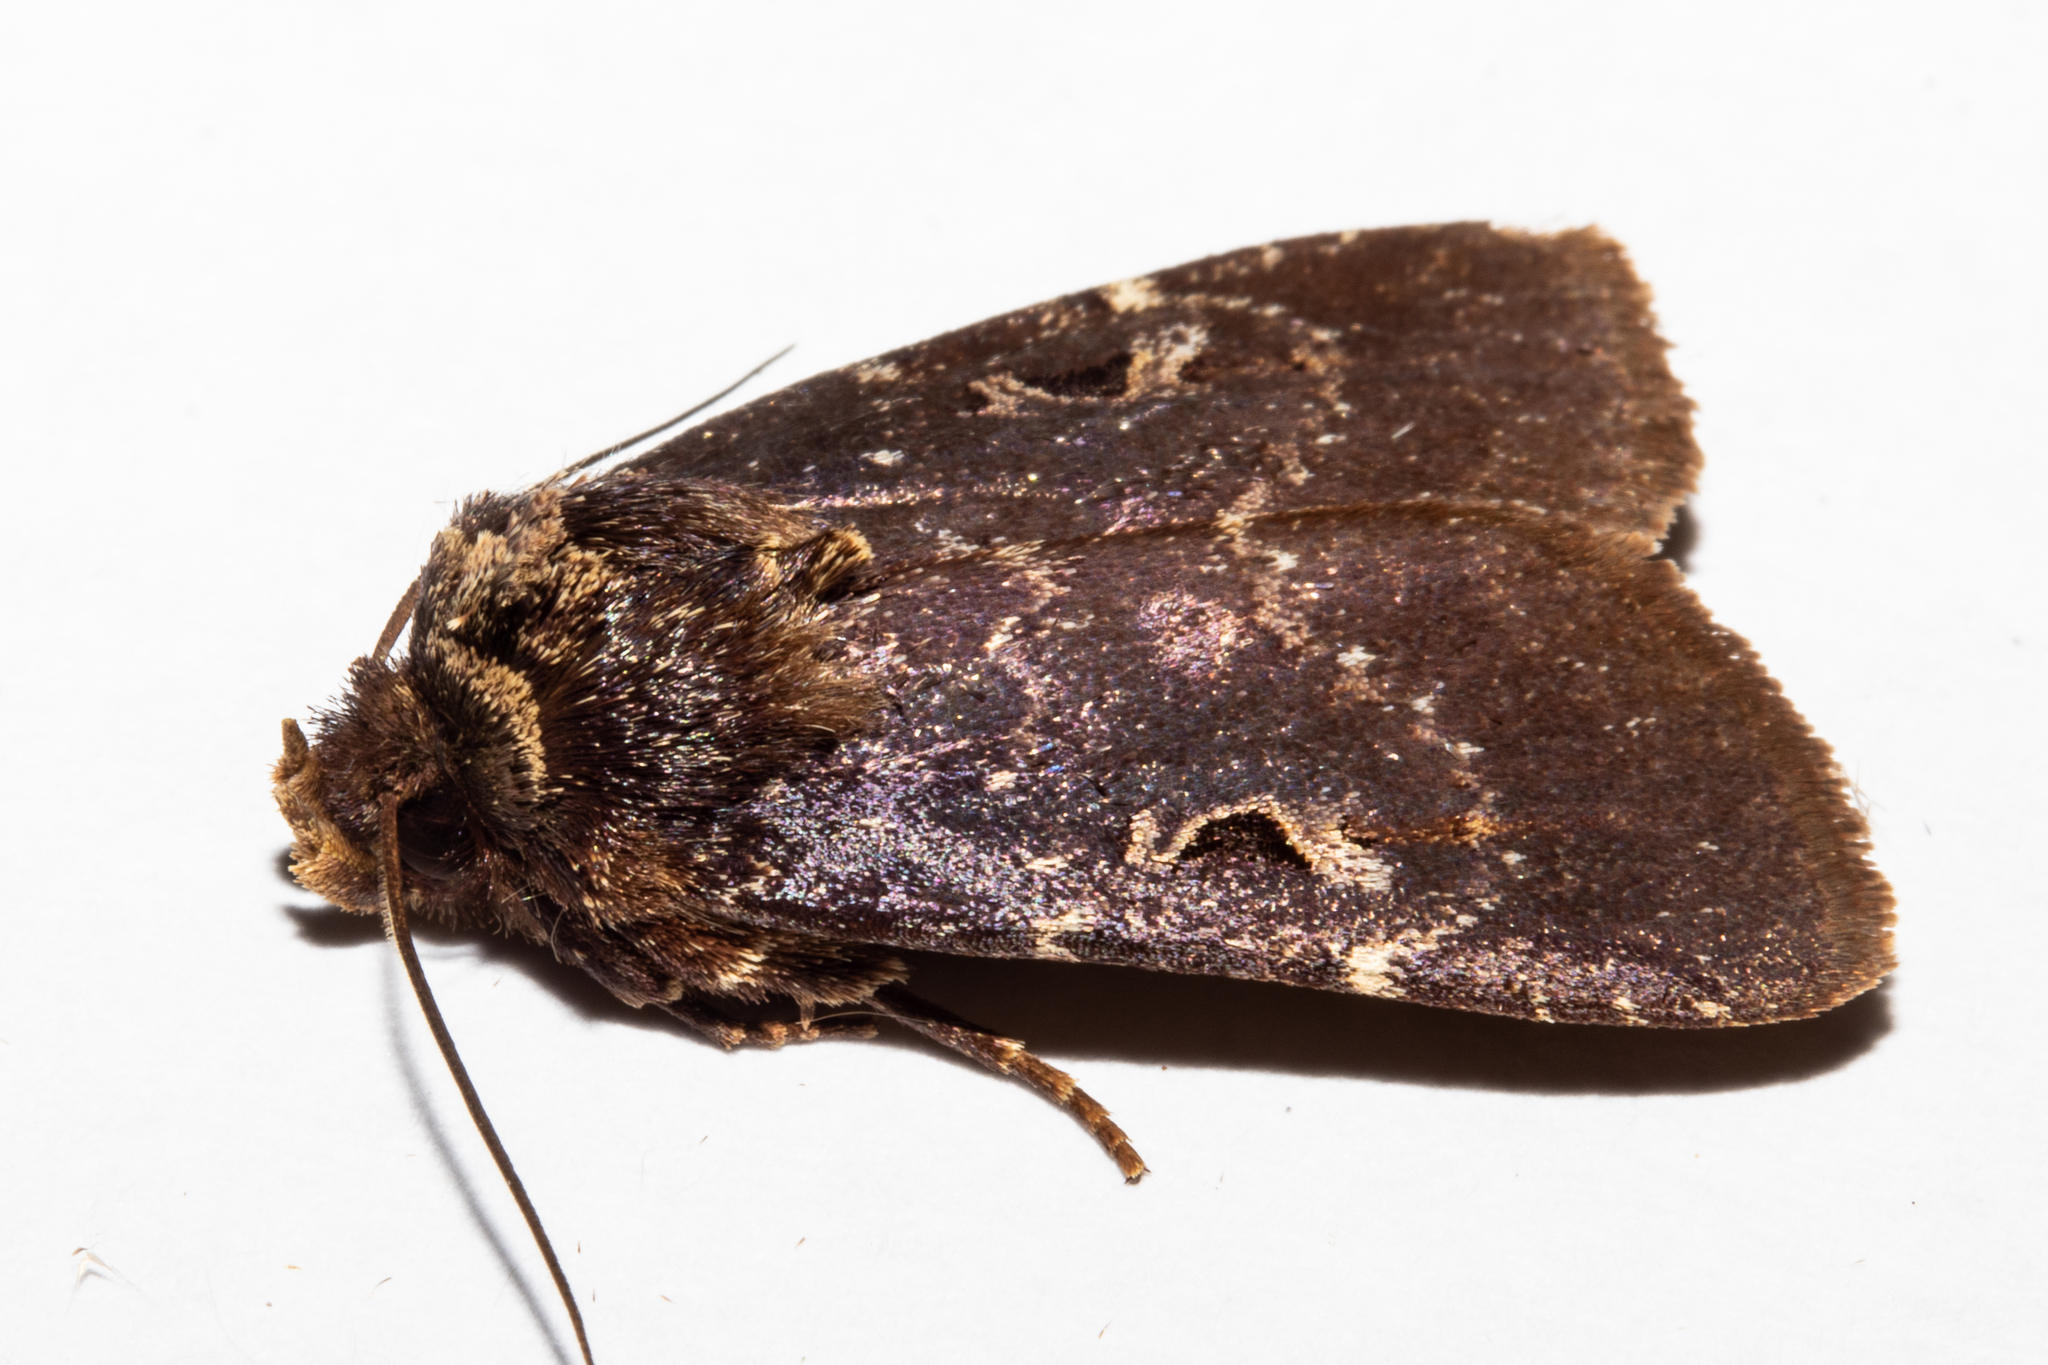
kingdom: Animalia
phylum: Arthropoda
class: Insecta
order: Lepidoptera
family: Noctuidae
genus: Austramathes
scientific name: Austramathes purpurea
